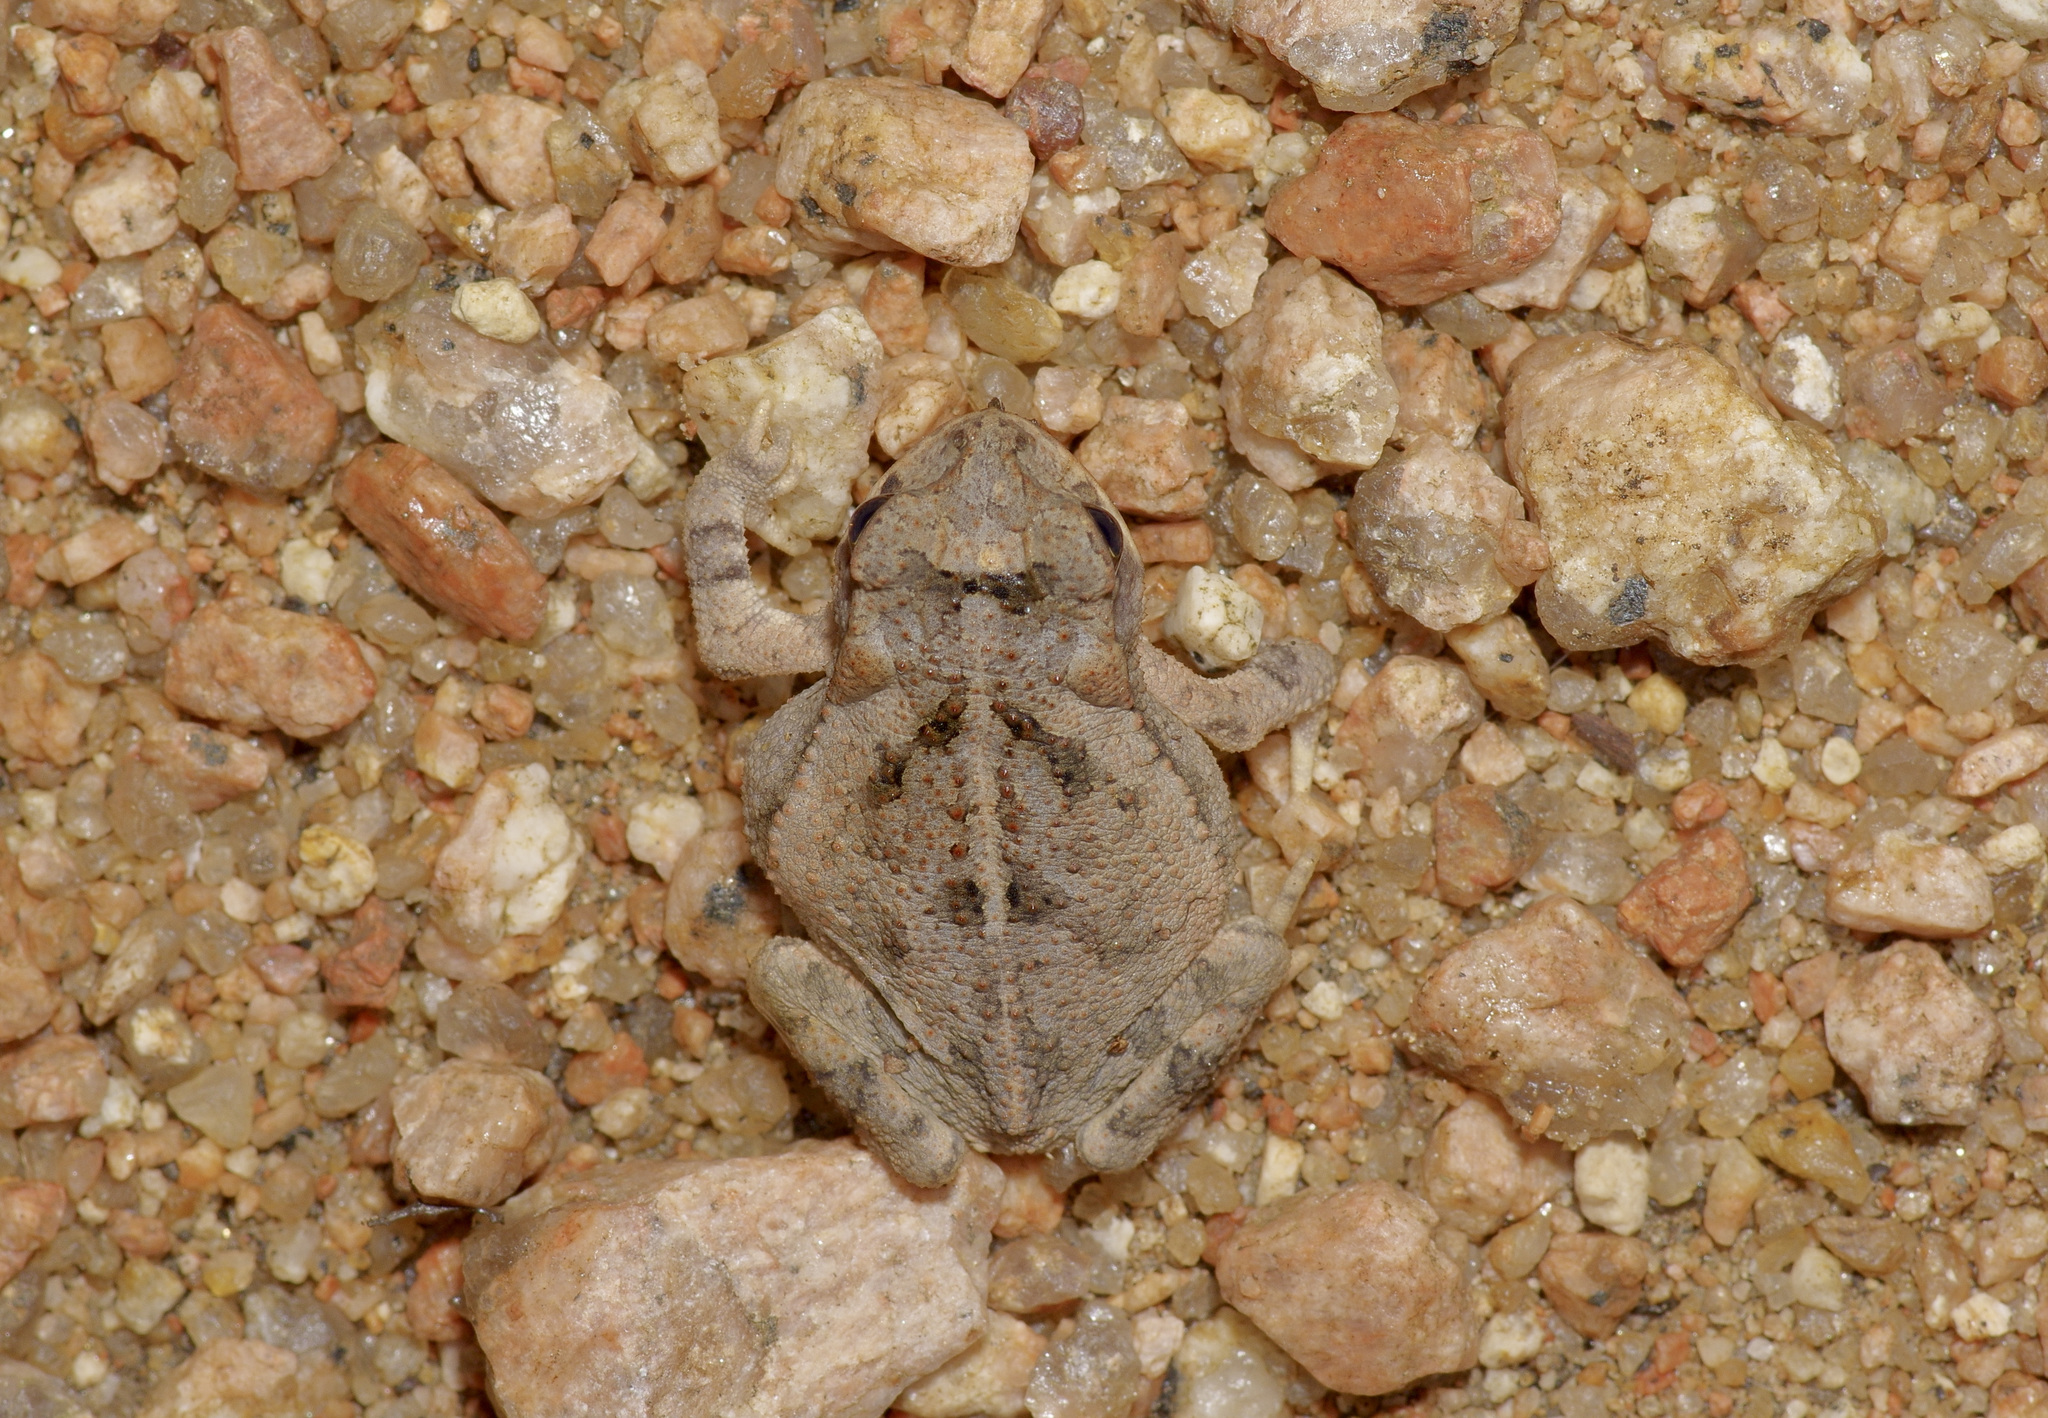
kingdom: Animalia
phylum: Chordata
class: Amphibia
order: Anura
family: Bufonidae
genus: Incilius
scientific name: Incilius nebulifer
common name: Gulf coast toad
